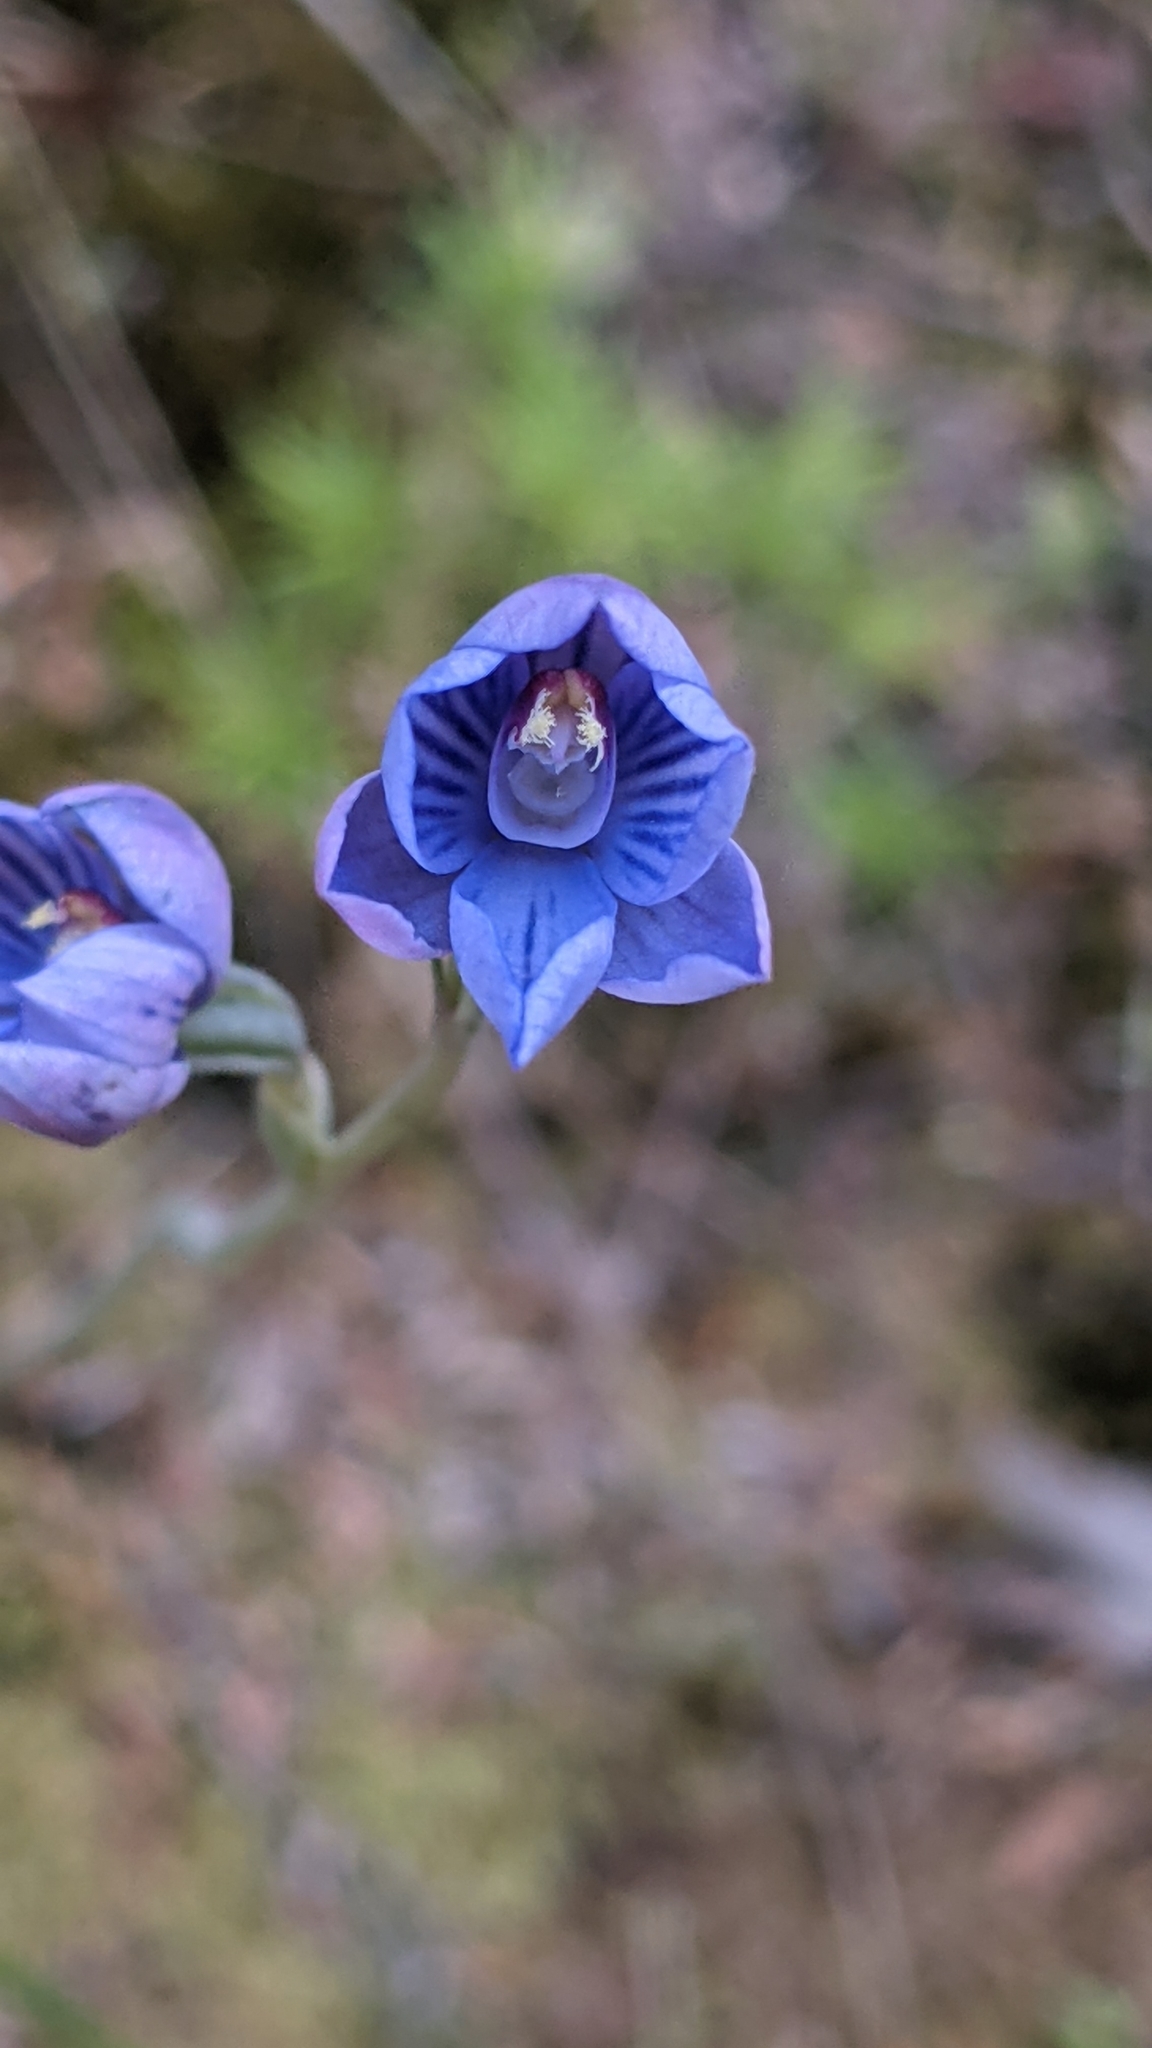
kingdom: Plantae
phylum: Tracheophyta
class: Liliopsida
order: Asparagales
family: Orchidaceae
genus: Thelymitra
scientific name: Thelymitra pulchella
